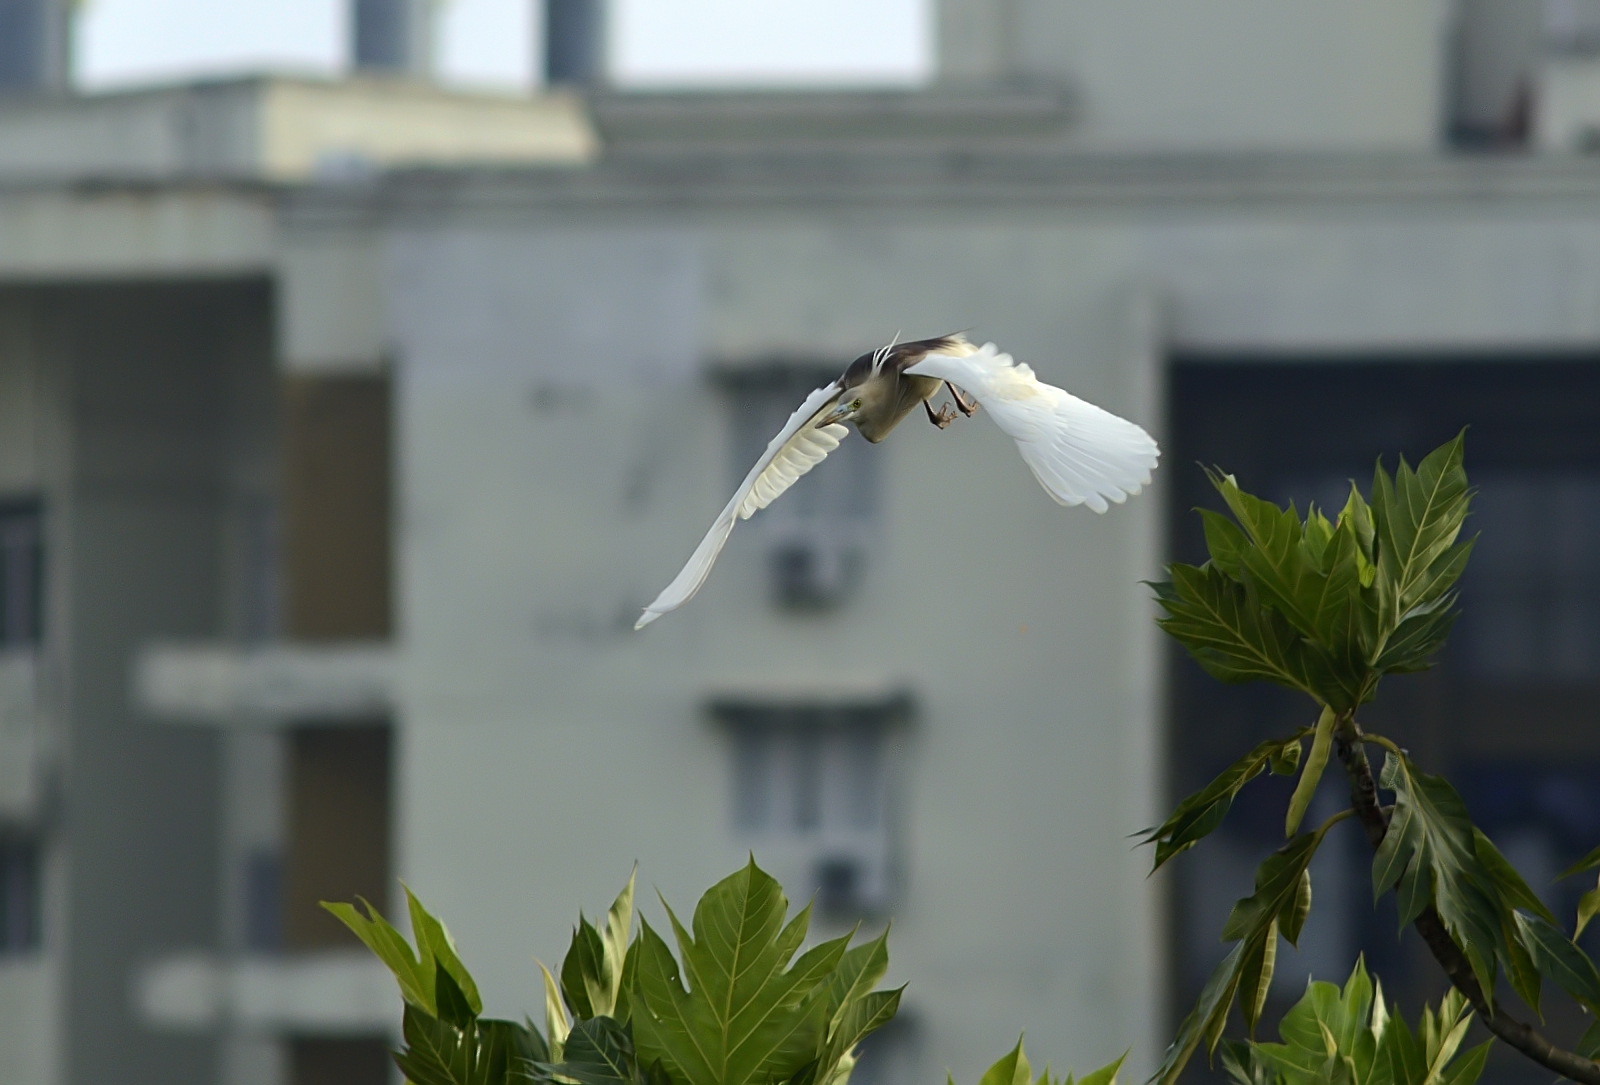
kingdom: Animalia
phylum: Chordata
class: Aves
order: Pelecaniformes
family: Ardeidae
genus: Ardeola
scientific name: Ardeola grayii
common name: Indian pond heron
